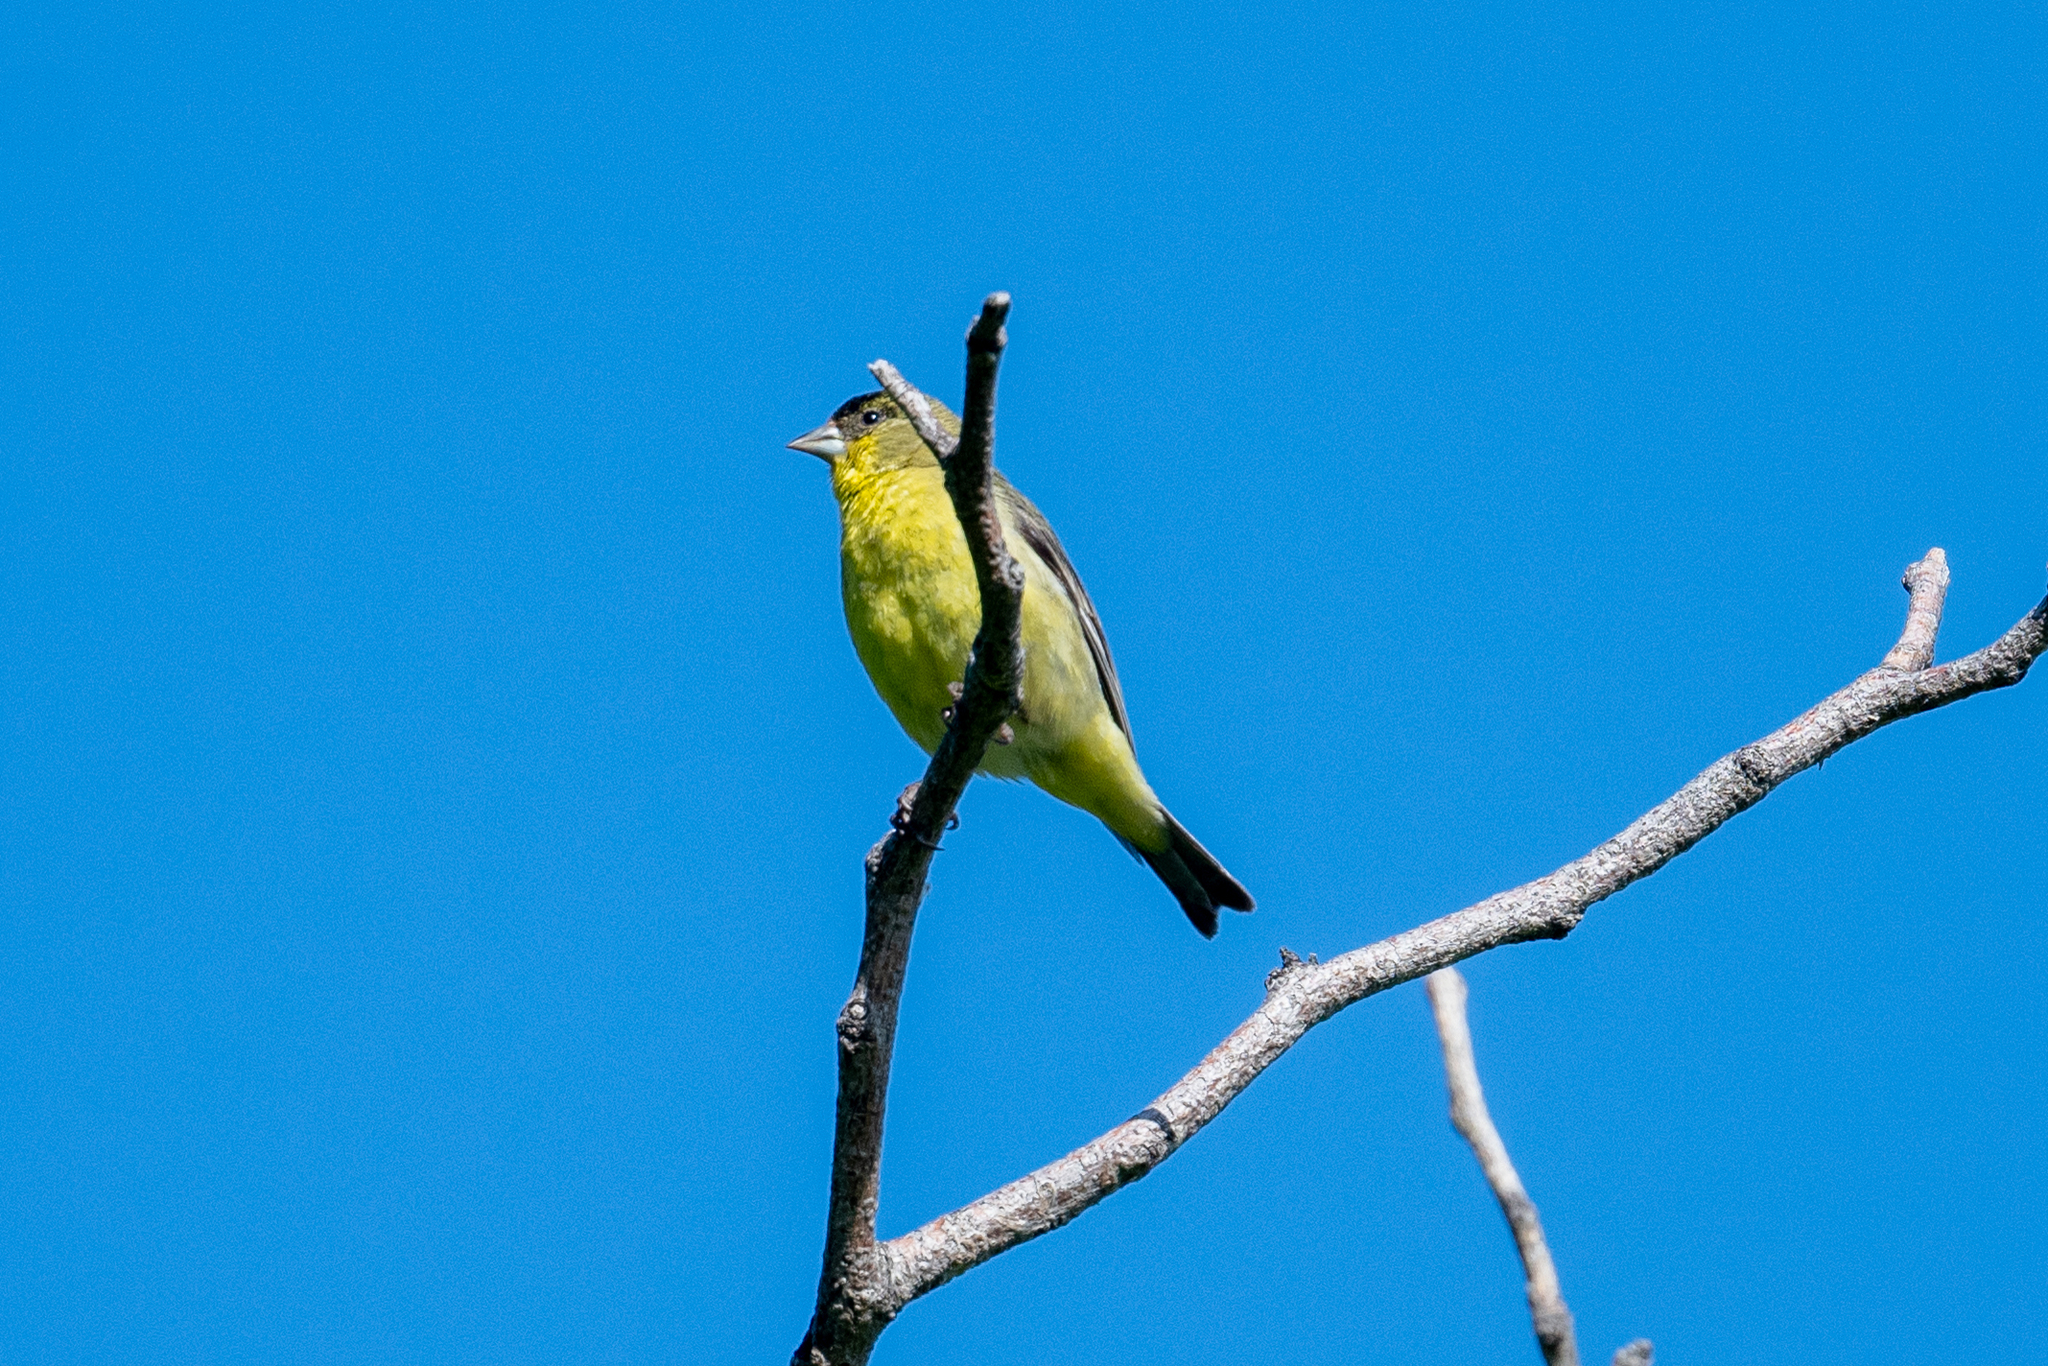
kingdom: Animalia
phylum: Chordata
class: Aves
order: Passeriformes
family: Fringillidae
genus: Spinus
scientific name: Spinus psaltria
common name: Lesser goldfinch
